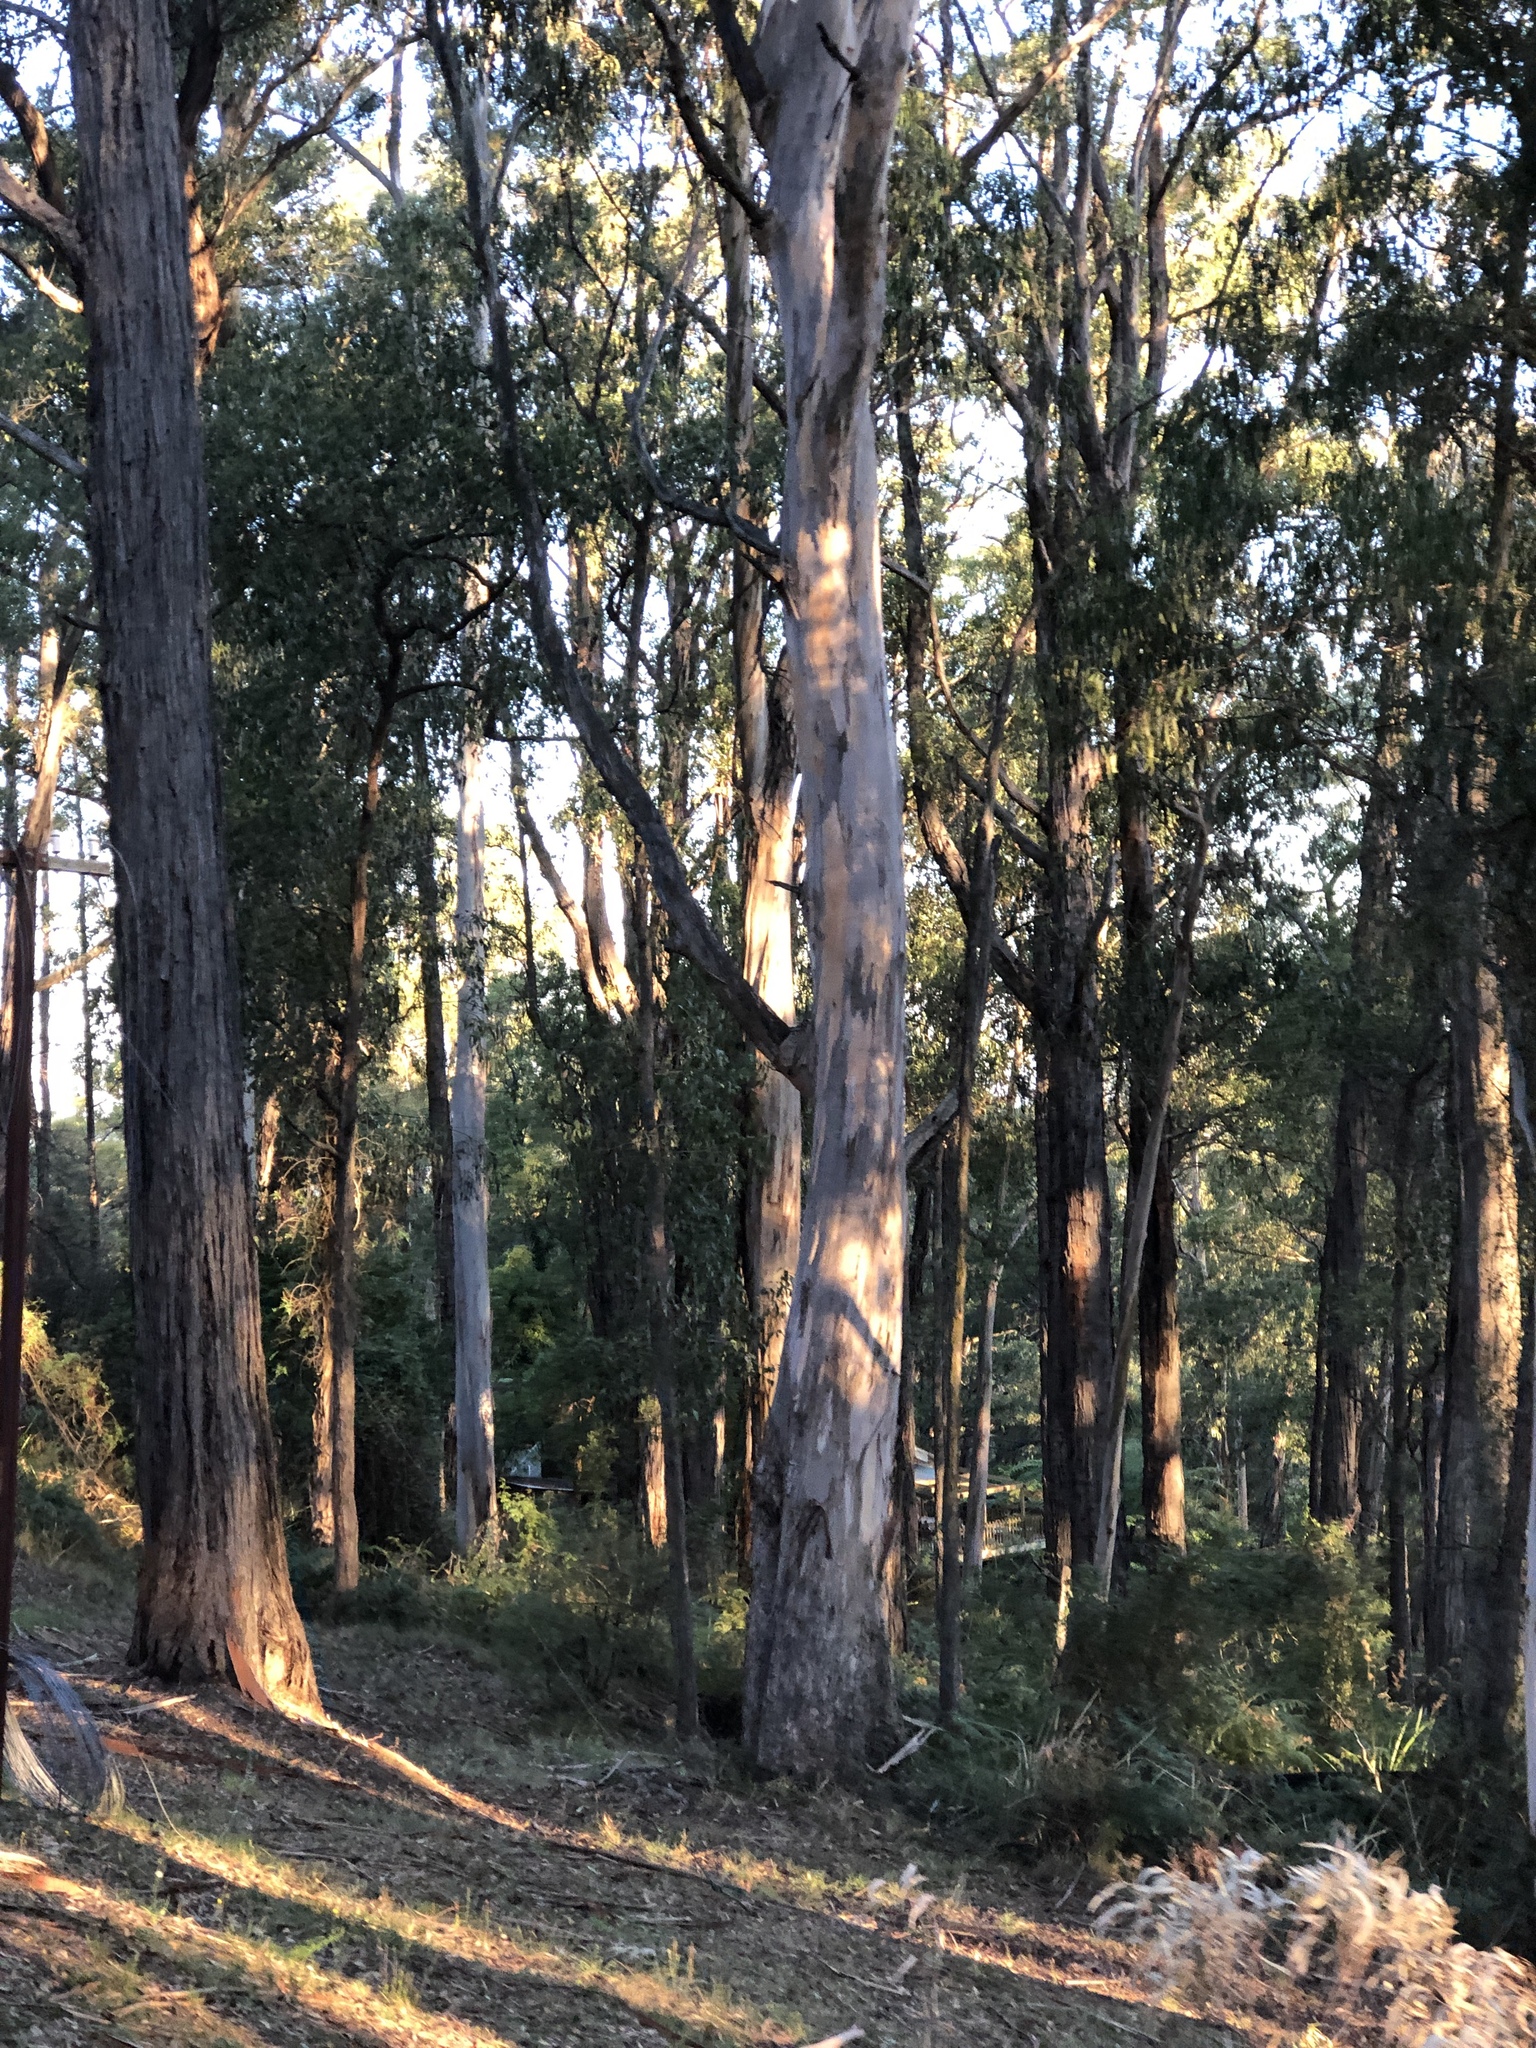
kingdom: Plantae
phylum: Tracheophyta
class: Magnoliopsida
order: Myrtales
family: Myrtaceae
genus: Eucalyptus
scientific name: Eucalyptus cypellocarpa
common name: Mountain grey gum
